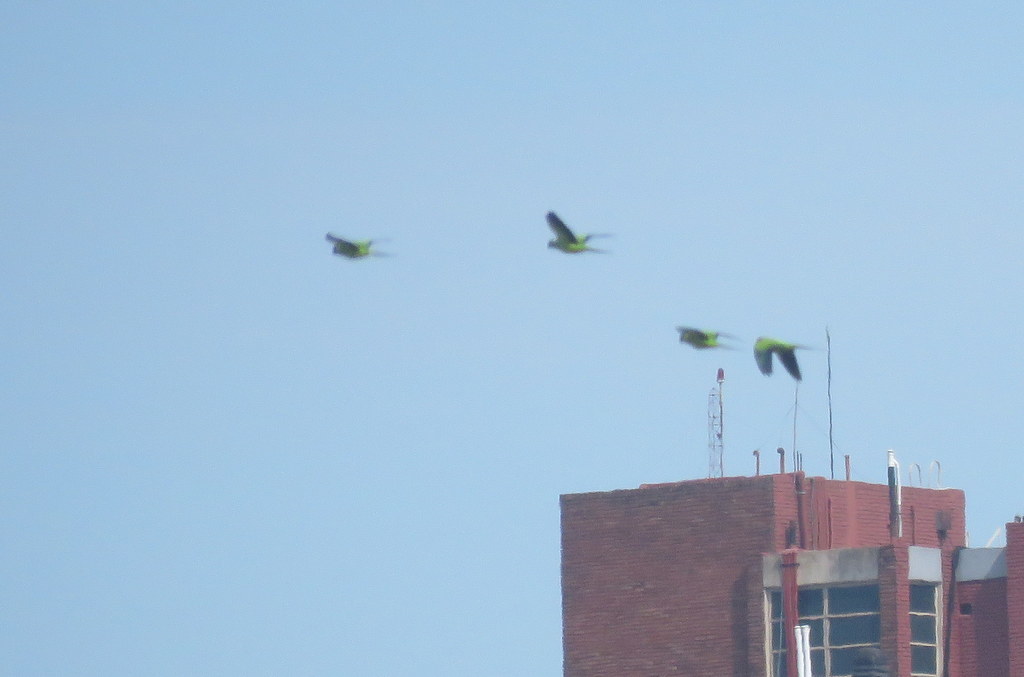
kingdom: Animalia
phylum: Chordata
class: Aves
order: Psittaciformes
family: Psittacidae
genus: Nandayus
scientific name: Nandayus nenday
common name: Nanday parakeet
